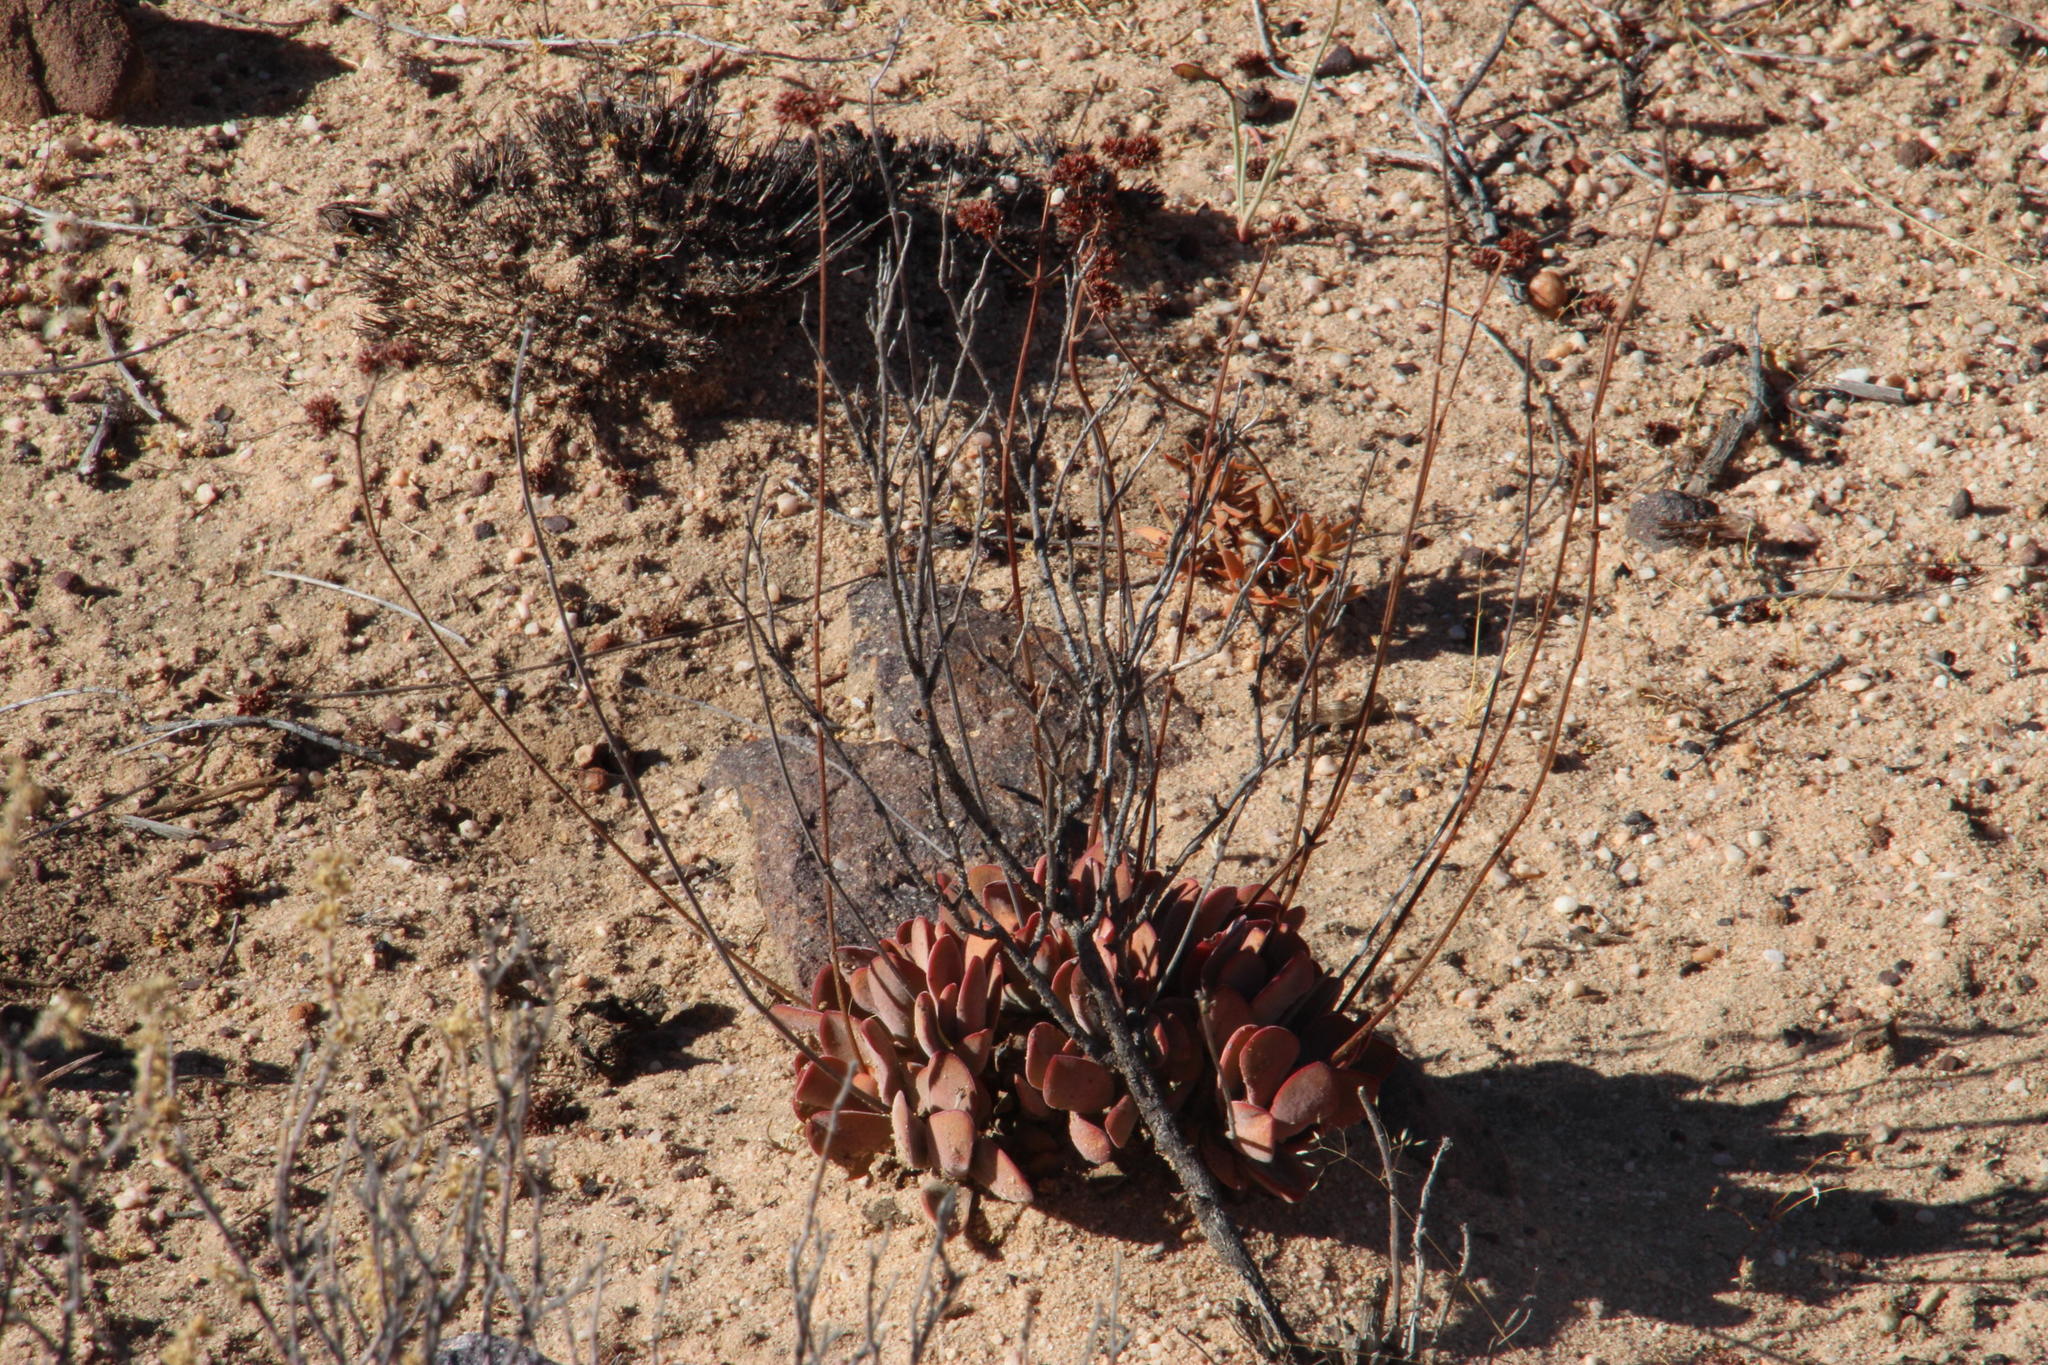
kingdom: Plantae
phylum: Tracheophyta
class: Magnoliopsida
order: Saxifragales
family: Crassulaceae
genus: Crassula
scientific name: Crassula atropurpurea
